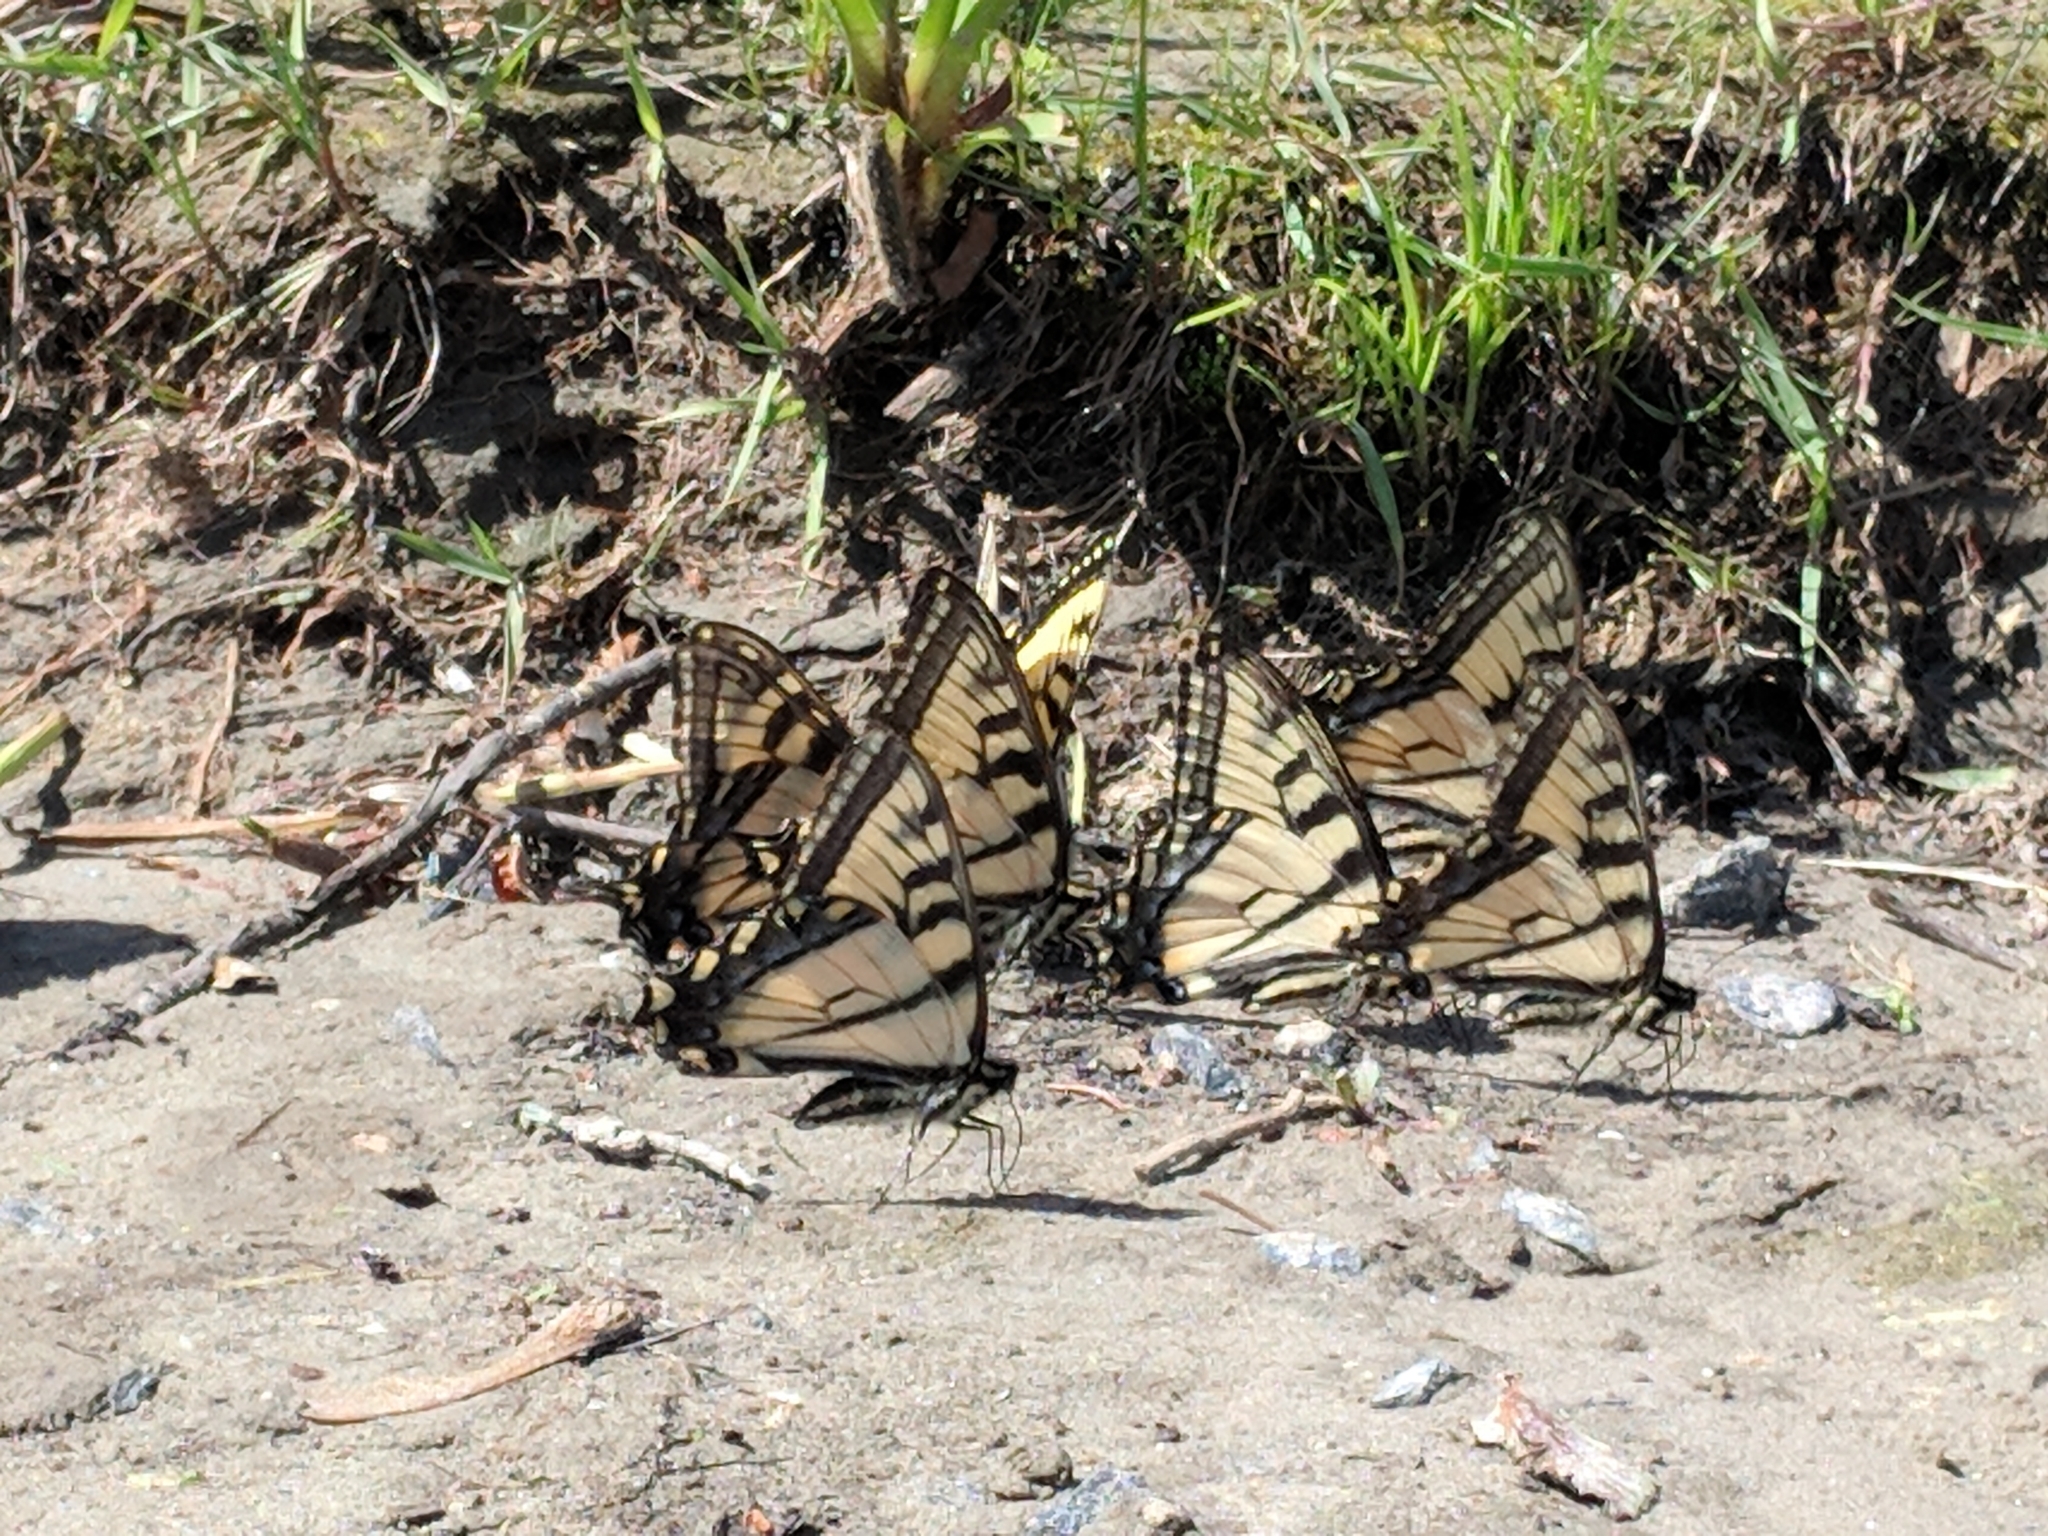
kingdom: Animalia
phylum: Arthropoda
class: Insecta
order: Lepidoptera
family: Papilionidae
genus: Papilio
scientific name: Papilio canadensis
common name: Canadian tiger swallowtail
